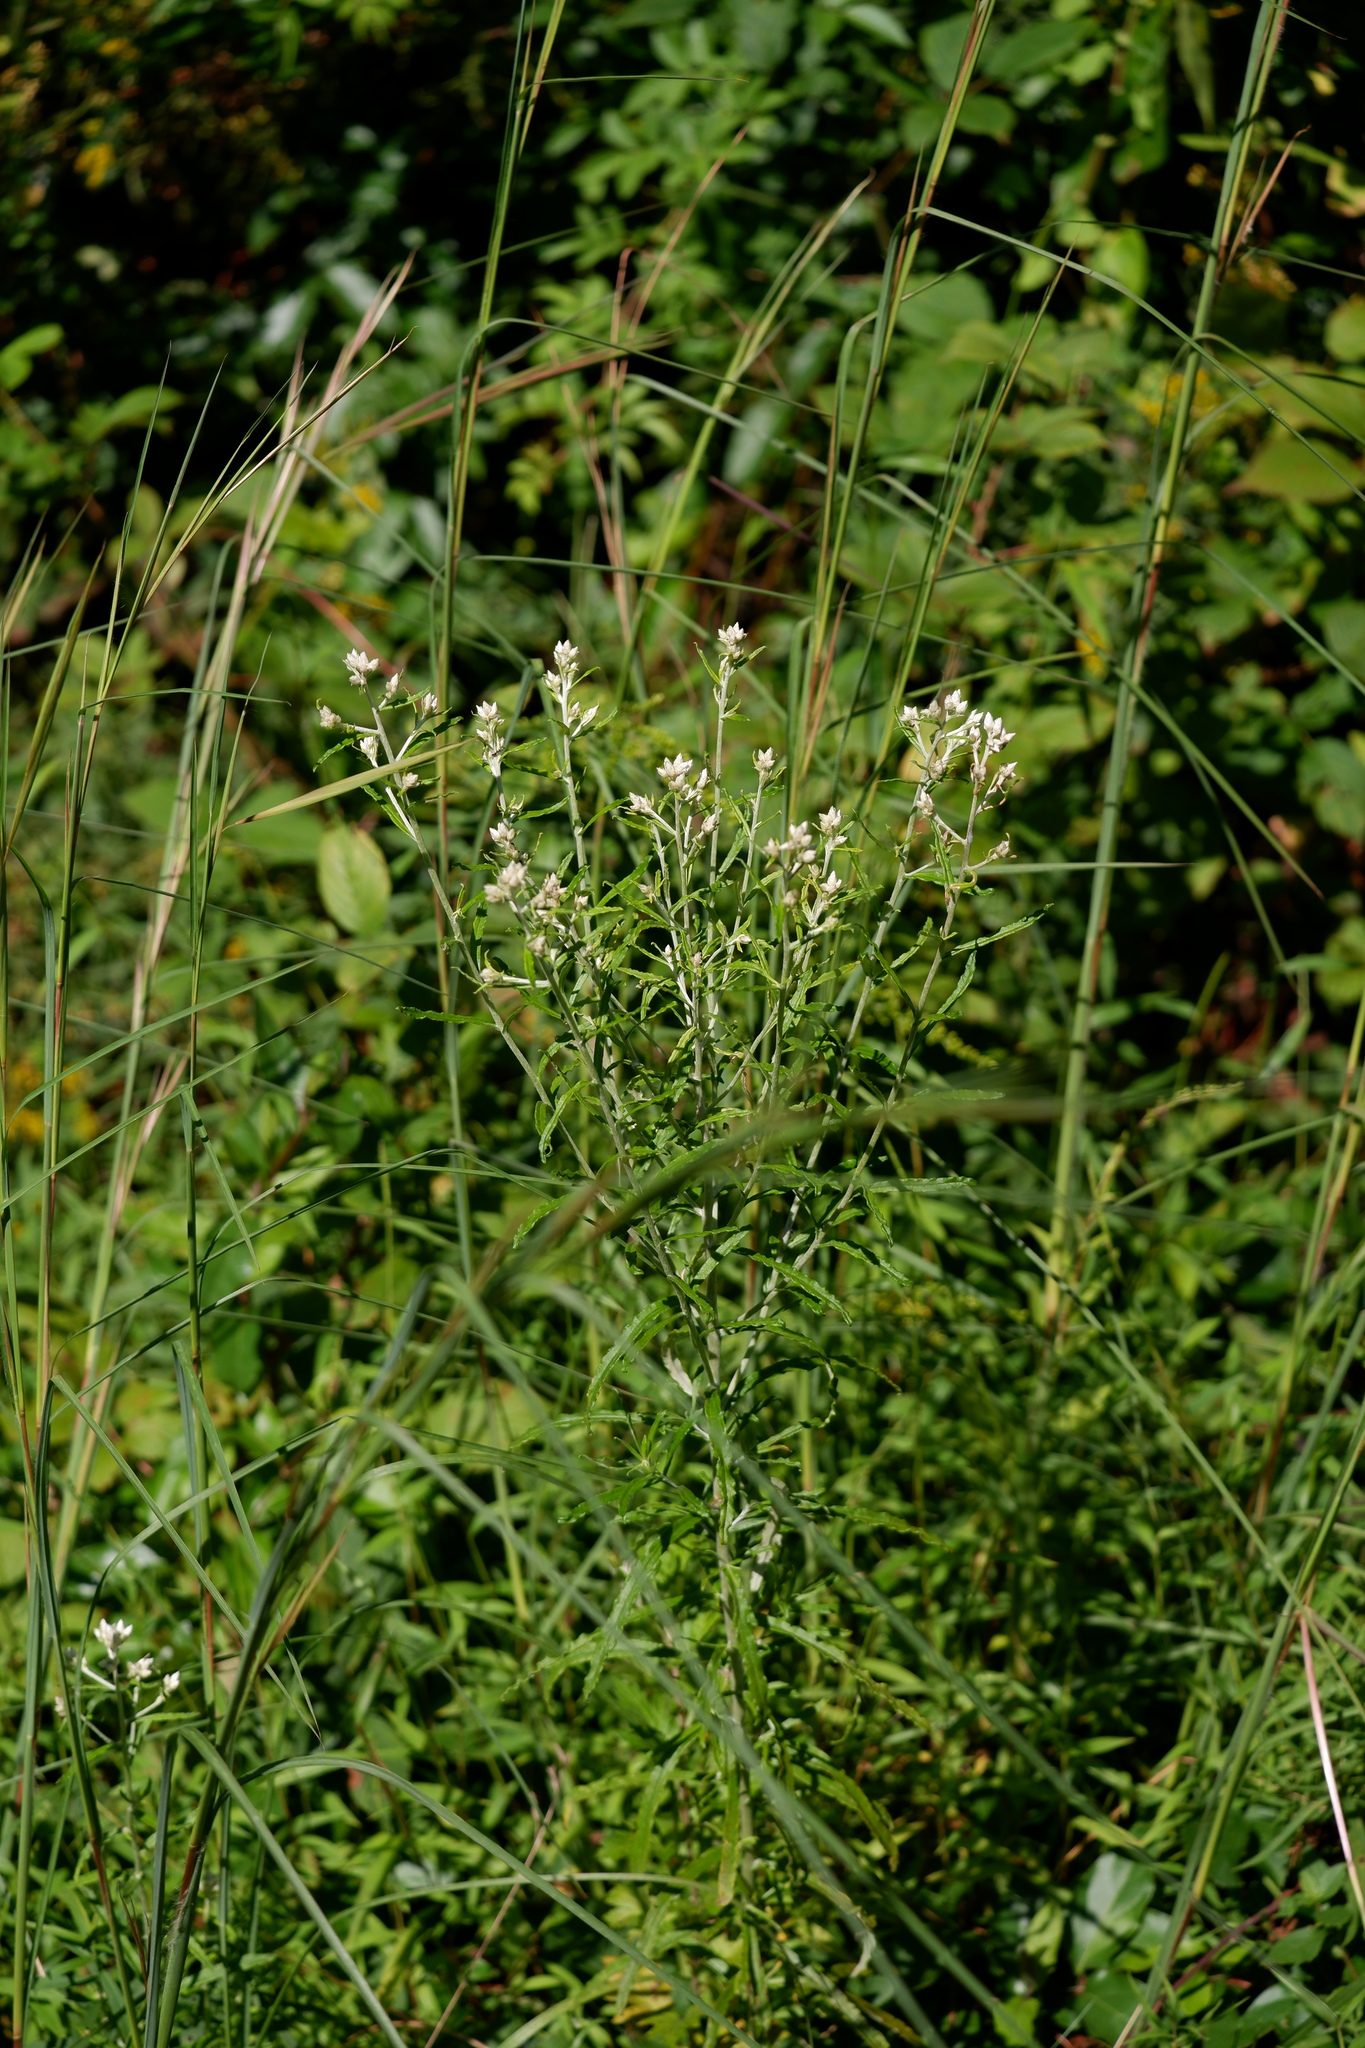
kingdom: Plantae
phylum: Tracheophyta
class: Magnoliopsida
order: Asterales
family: Asteraceae
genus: Pseudognaphalium
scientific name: Pseudognaphalium obtusifolium
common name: Eastern rabbit-tobacco
